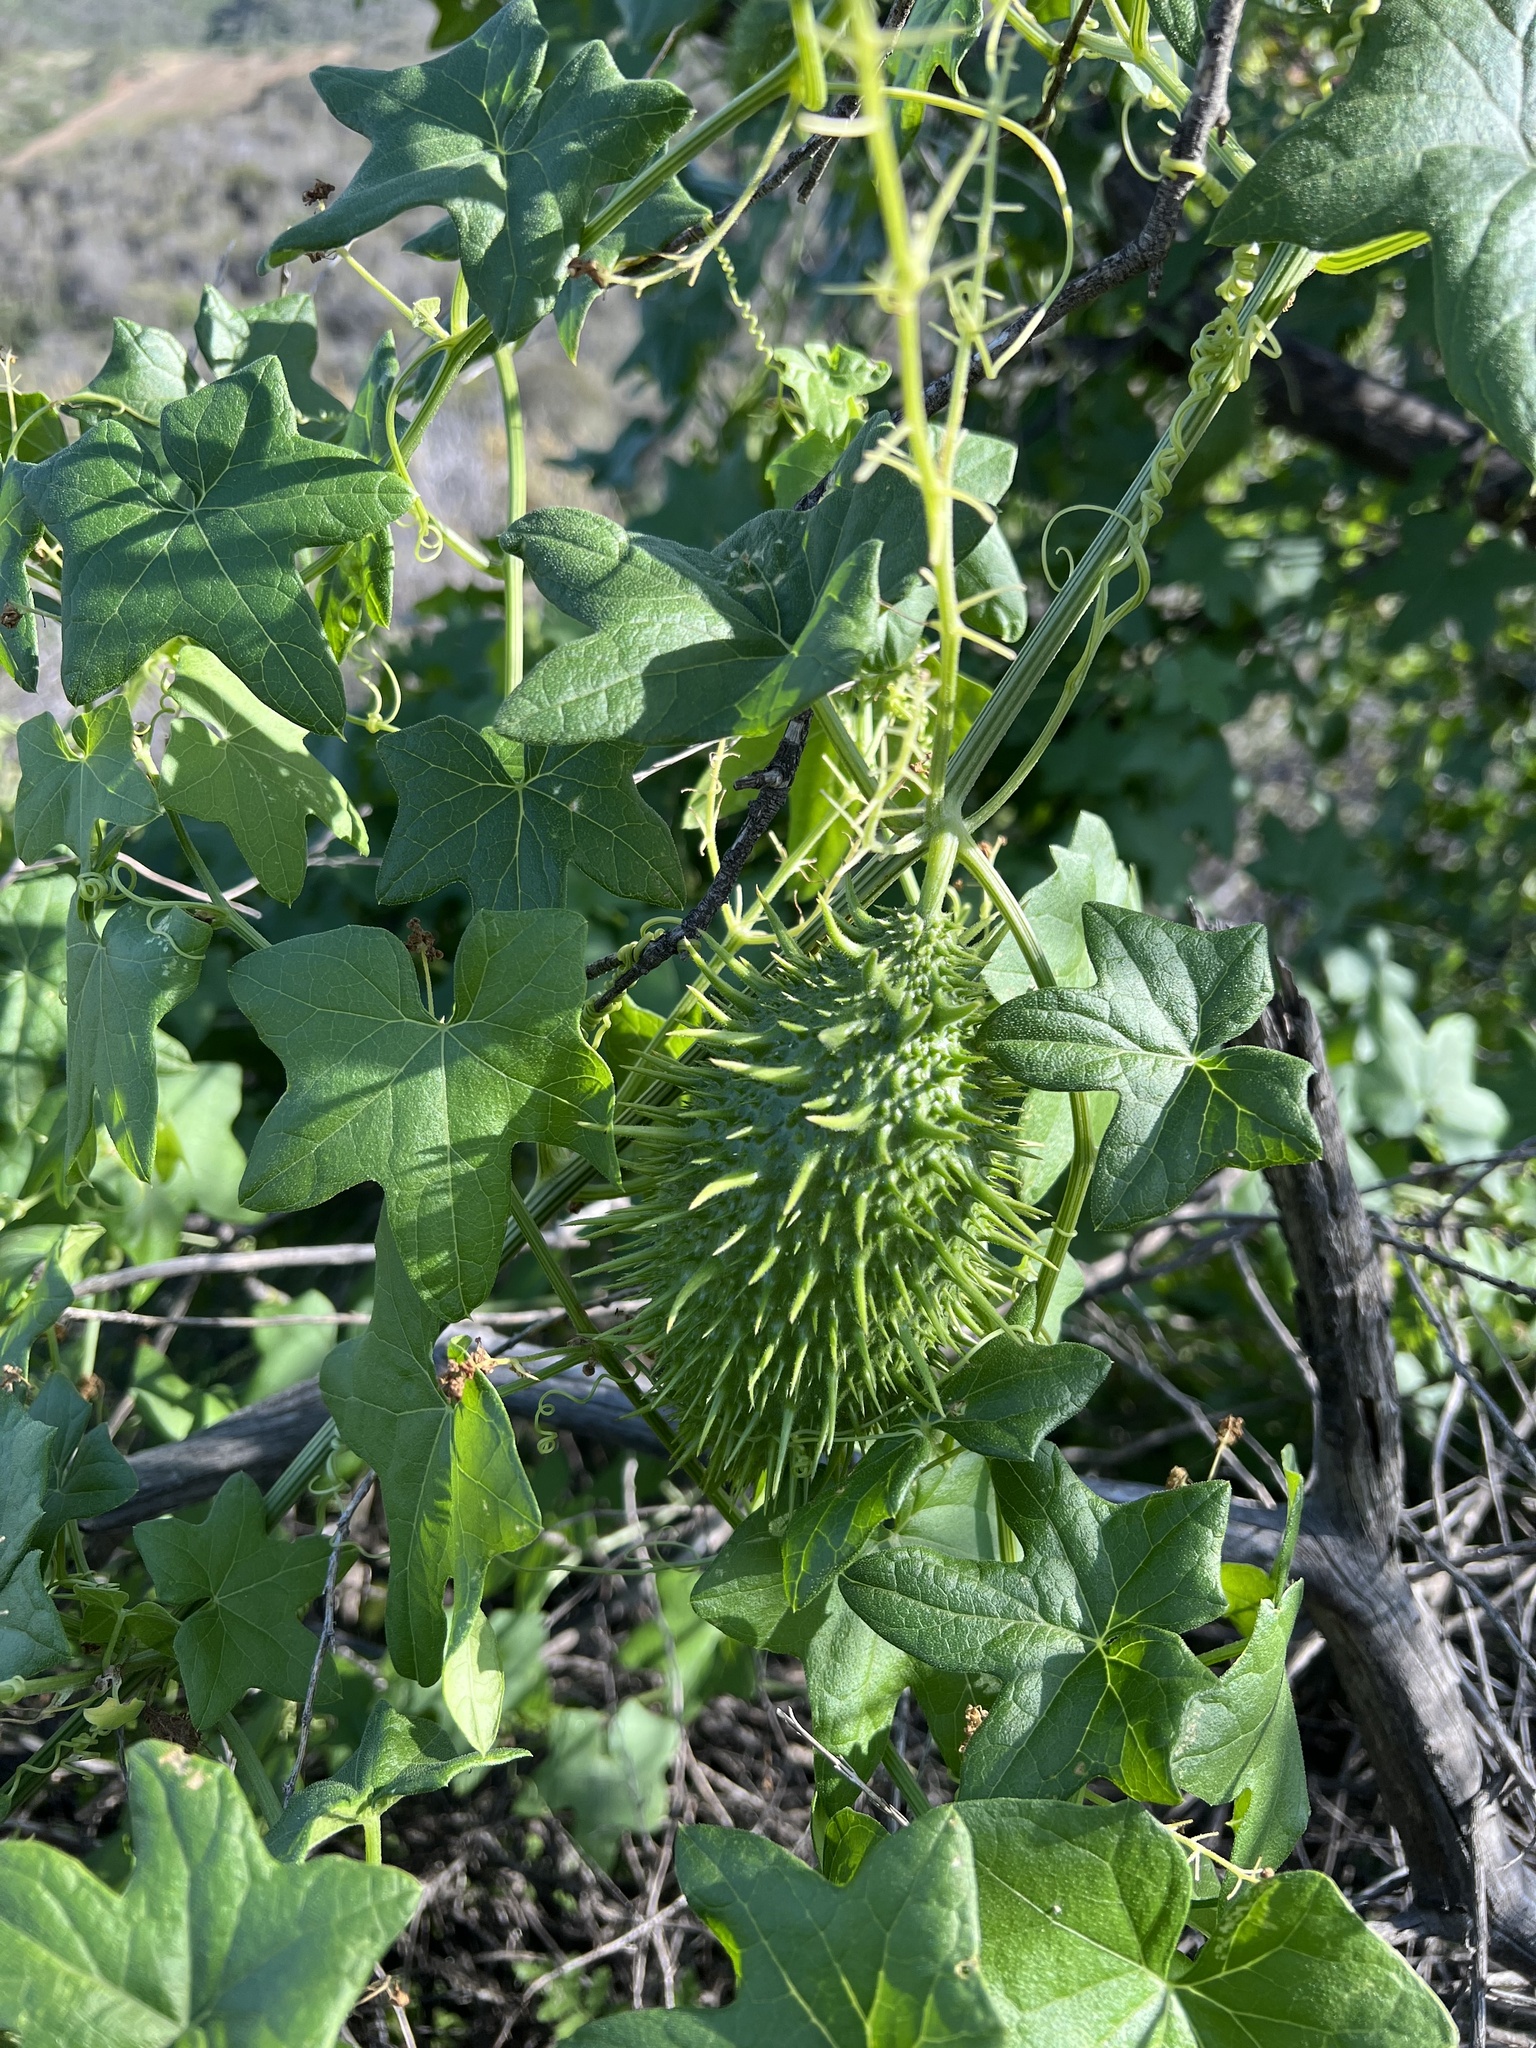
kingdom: Plantae
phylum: Tracheophyta
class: Magnoliopsida
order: Cucurbitales
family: Cucurbitaceae
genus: Marah
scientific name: Marah macrocarpa
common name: Cucamonga manroot
